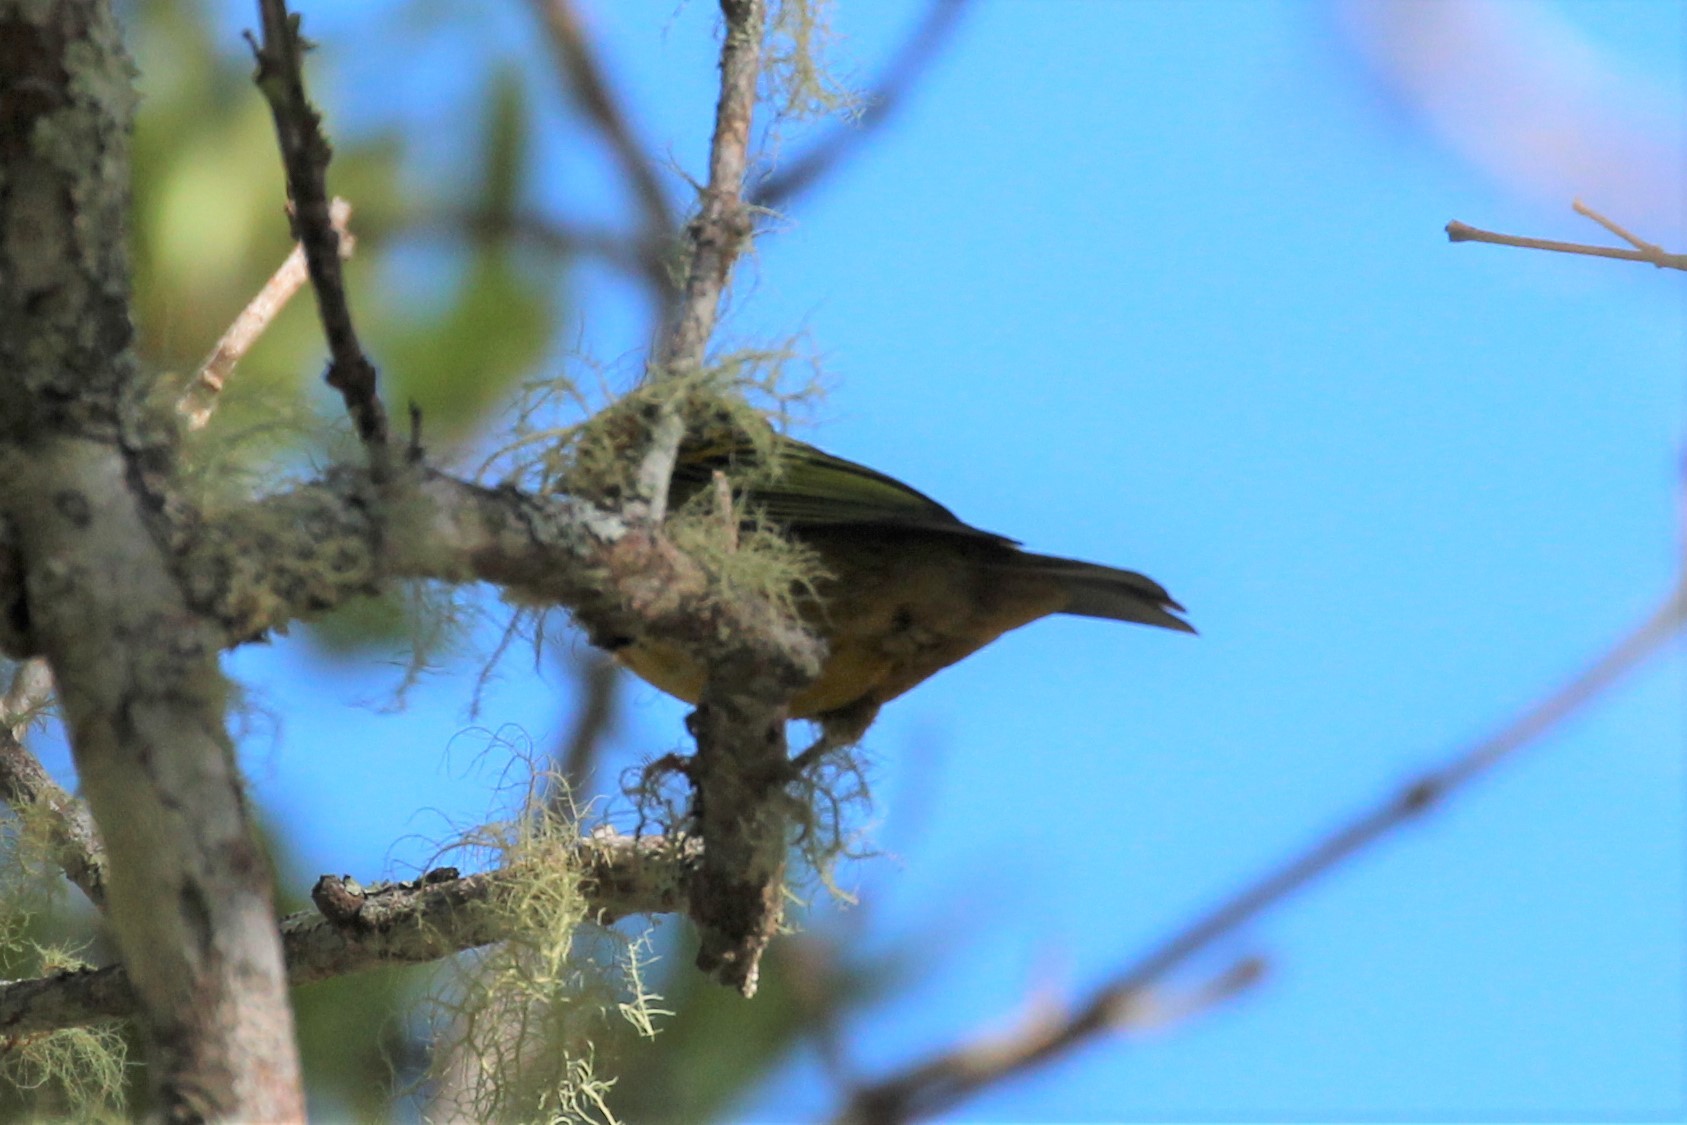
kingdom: Animalia
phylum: Chordata
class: Aves
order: Passeriformes
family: Thraupidae
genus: Tangara
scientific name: Tangara icterocephala
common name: Silver-throated tanager
